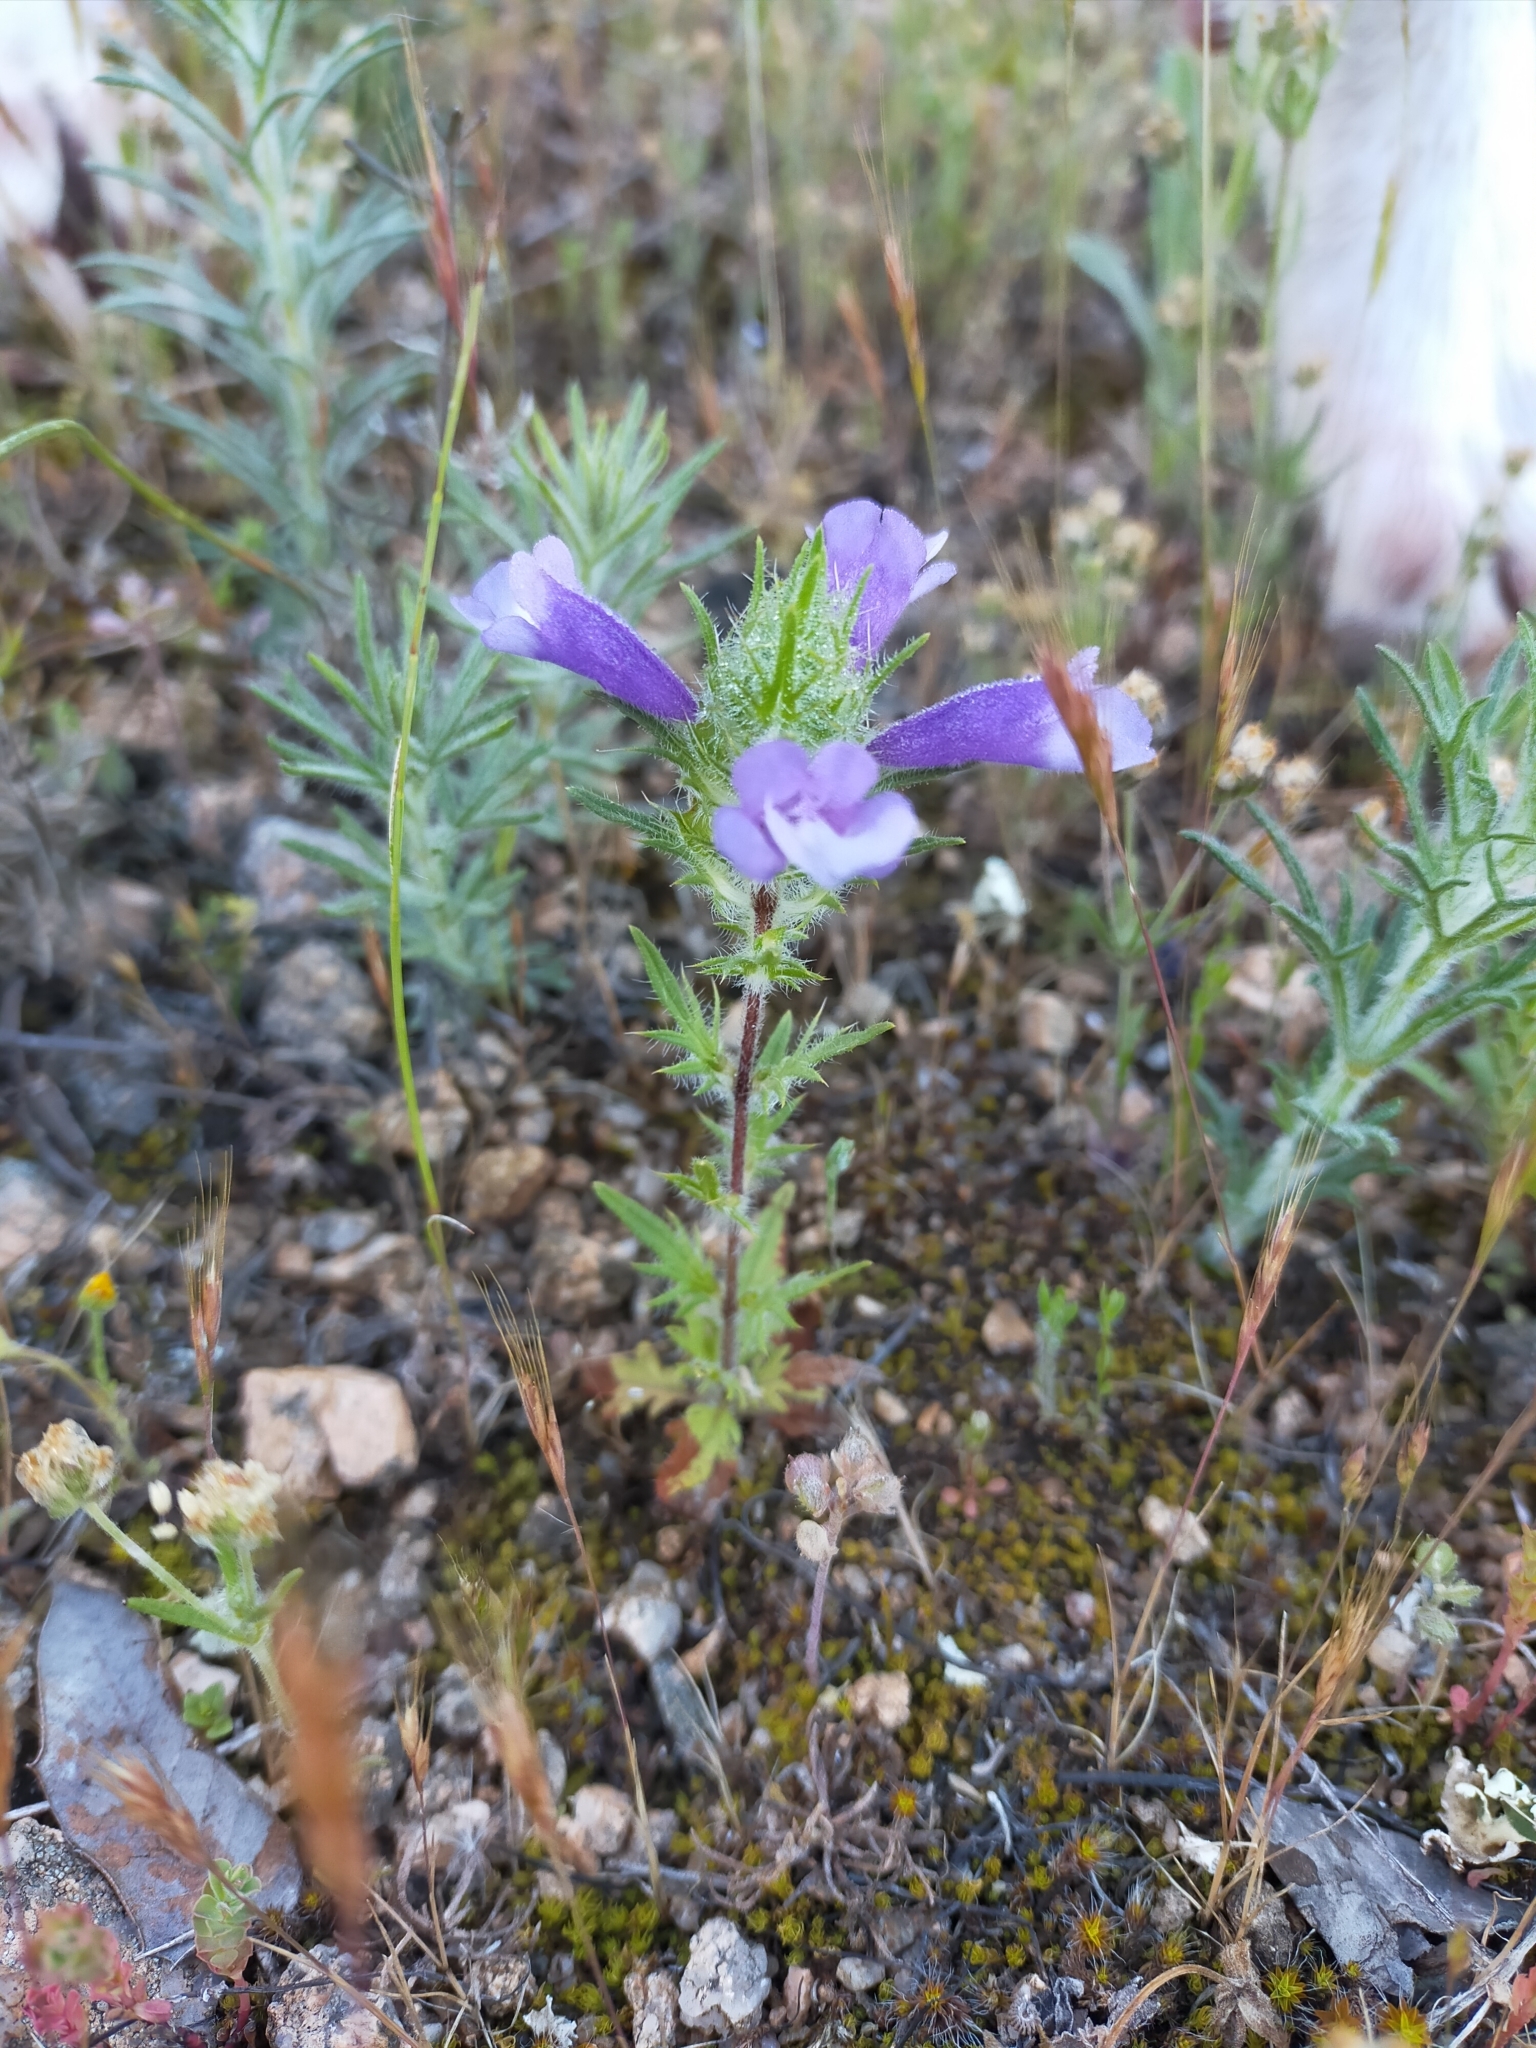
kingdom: Plantae
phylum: Tracheophyta
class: Magnoliopsida
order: Lamiales
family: Lamiaceae
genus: Cleonia
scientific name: Cleonia lusitanica
